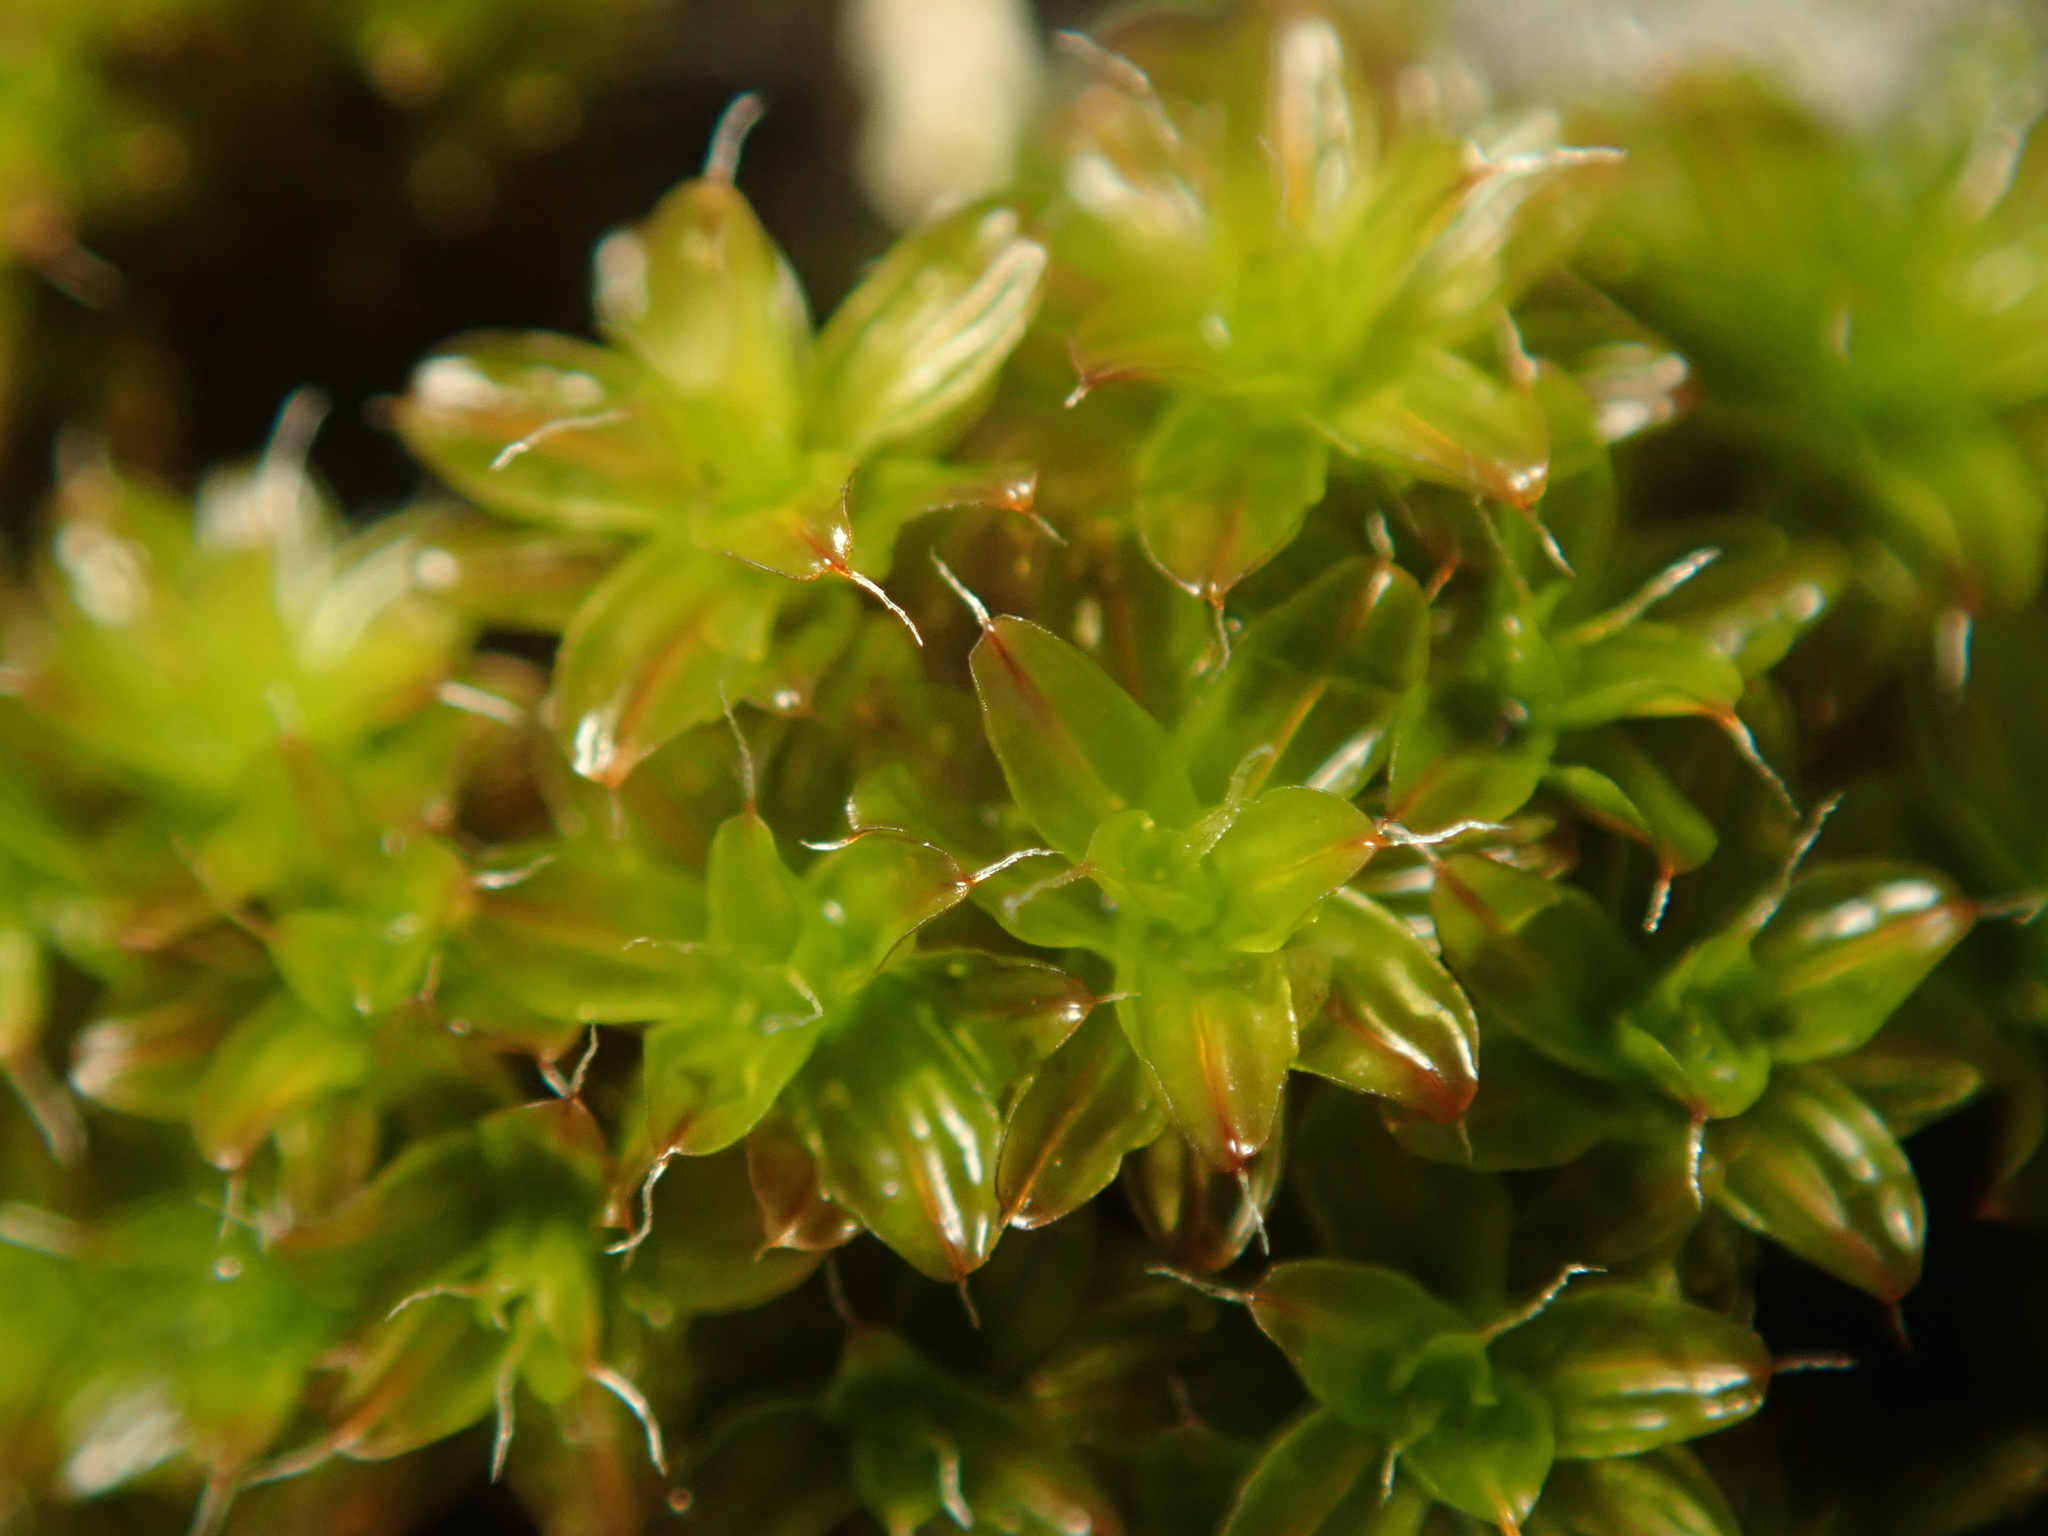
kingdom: Plantae
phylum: Bryophyta
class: Bryopsida
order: Pottiales
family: Pottiaceae
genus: Syntrichia
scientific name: Syntrichia ruralis
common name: Sidewalk screw moss
